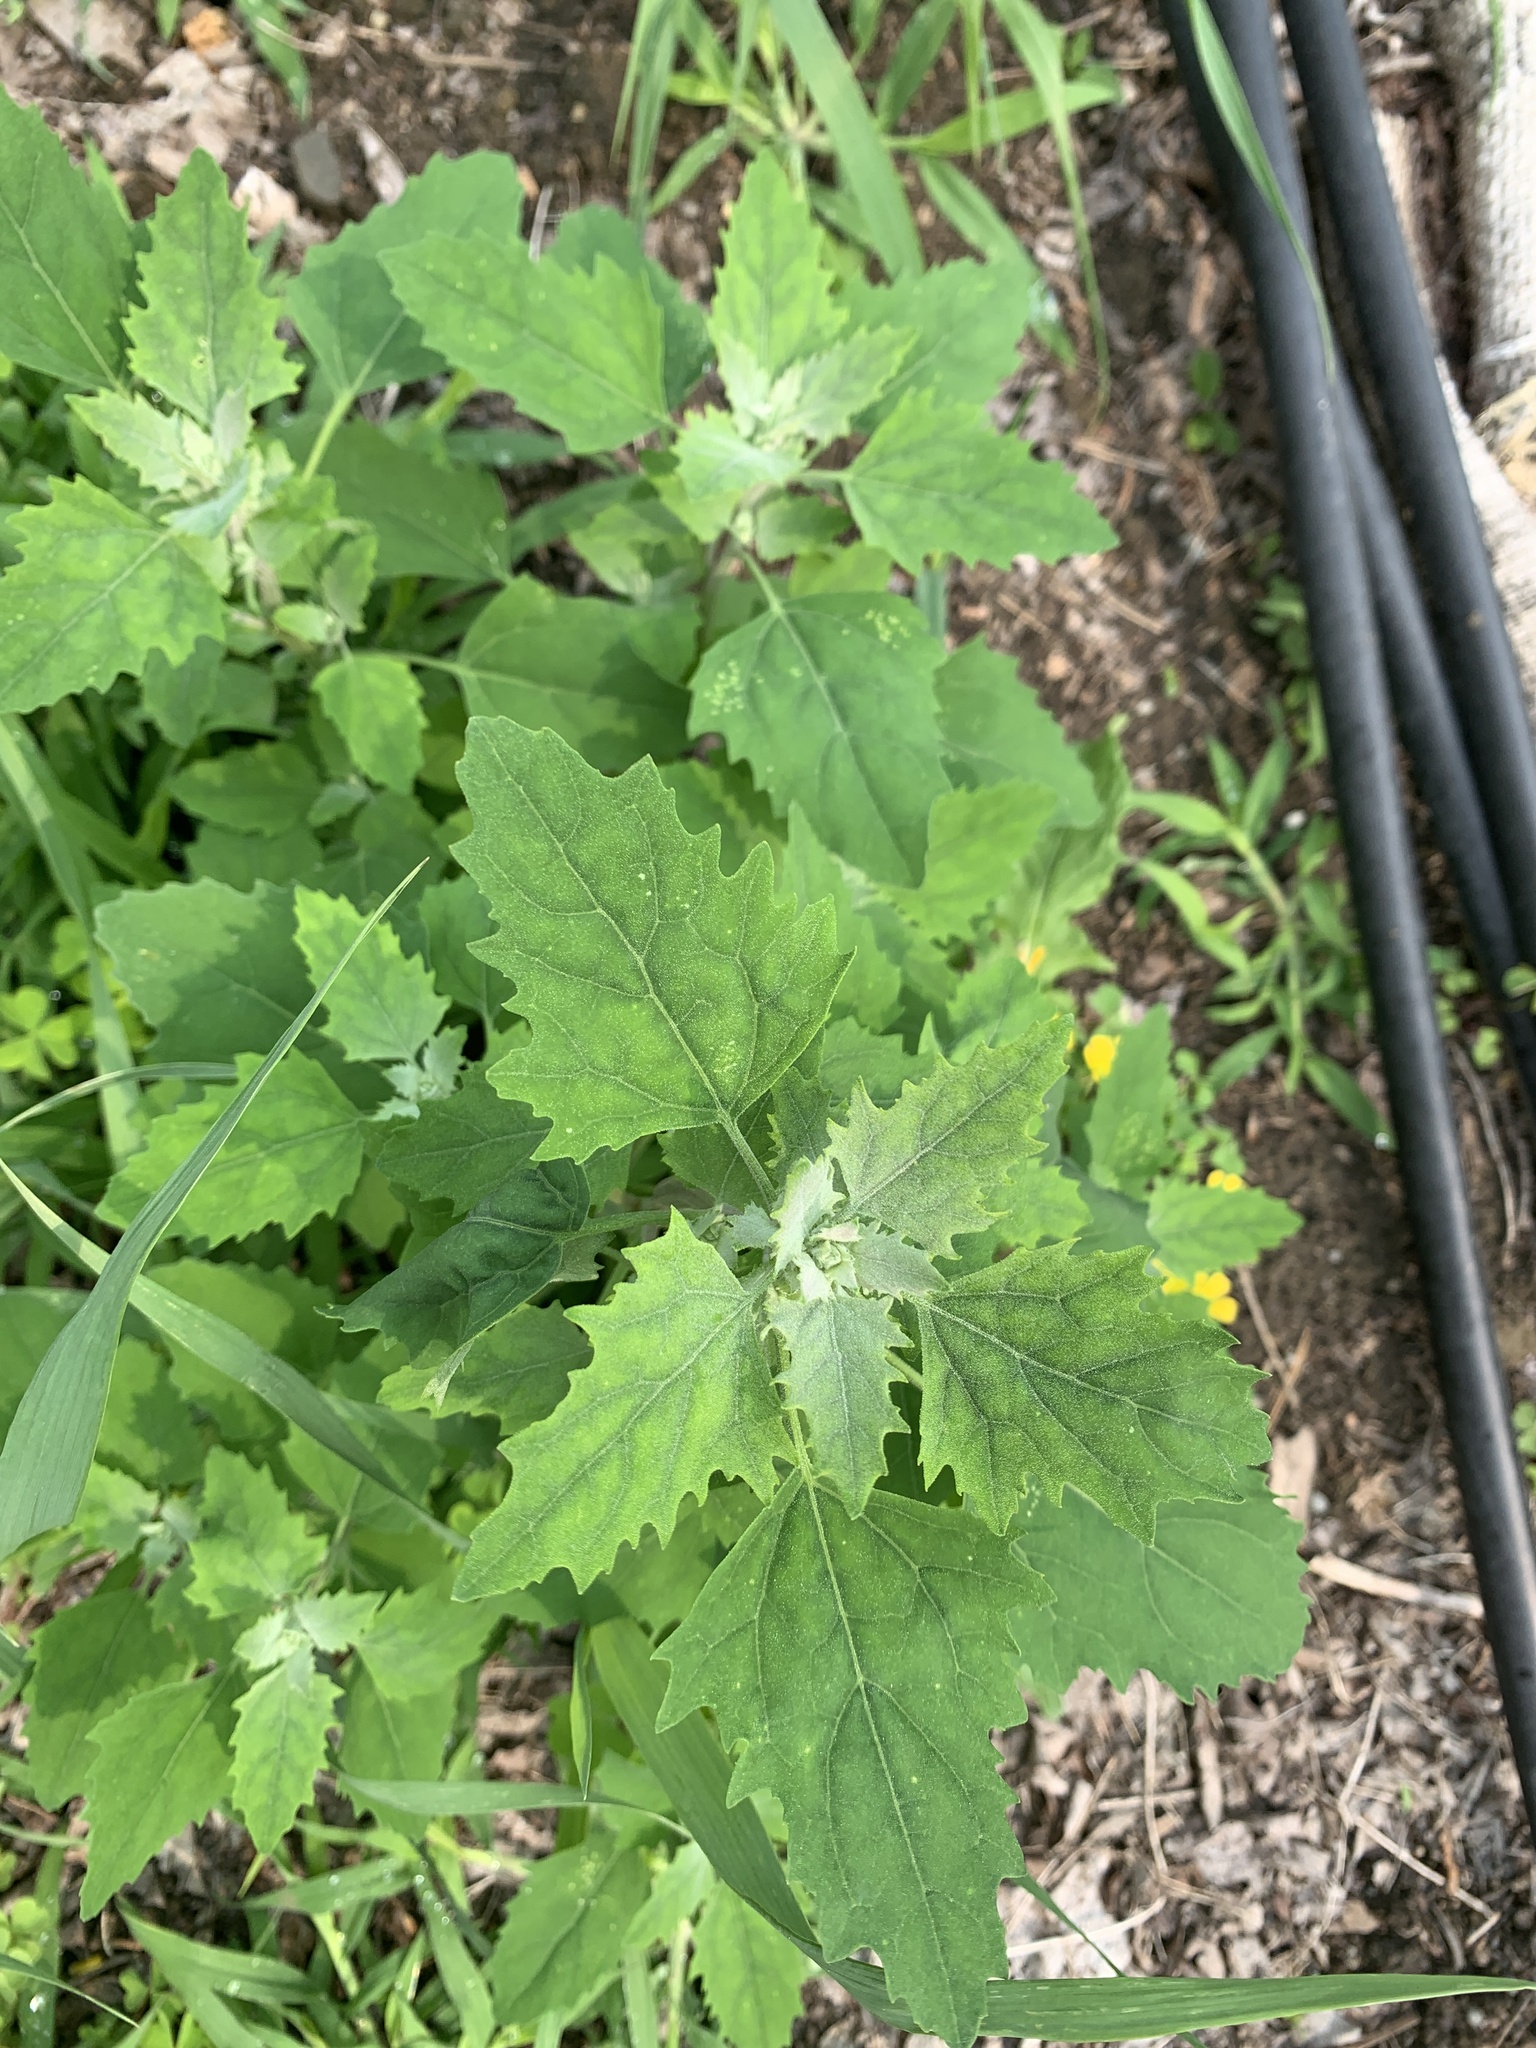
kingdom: Plantae
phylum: Tracheophyta
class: Magnoliopsida
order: Caryophyllales
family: Amaranthaceae
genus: Chenopodium
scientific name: Chenopodium album
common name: Fat-hen
